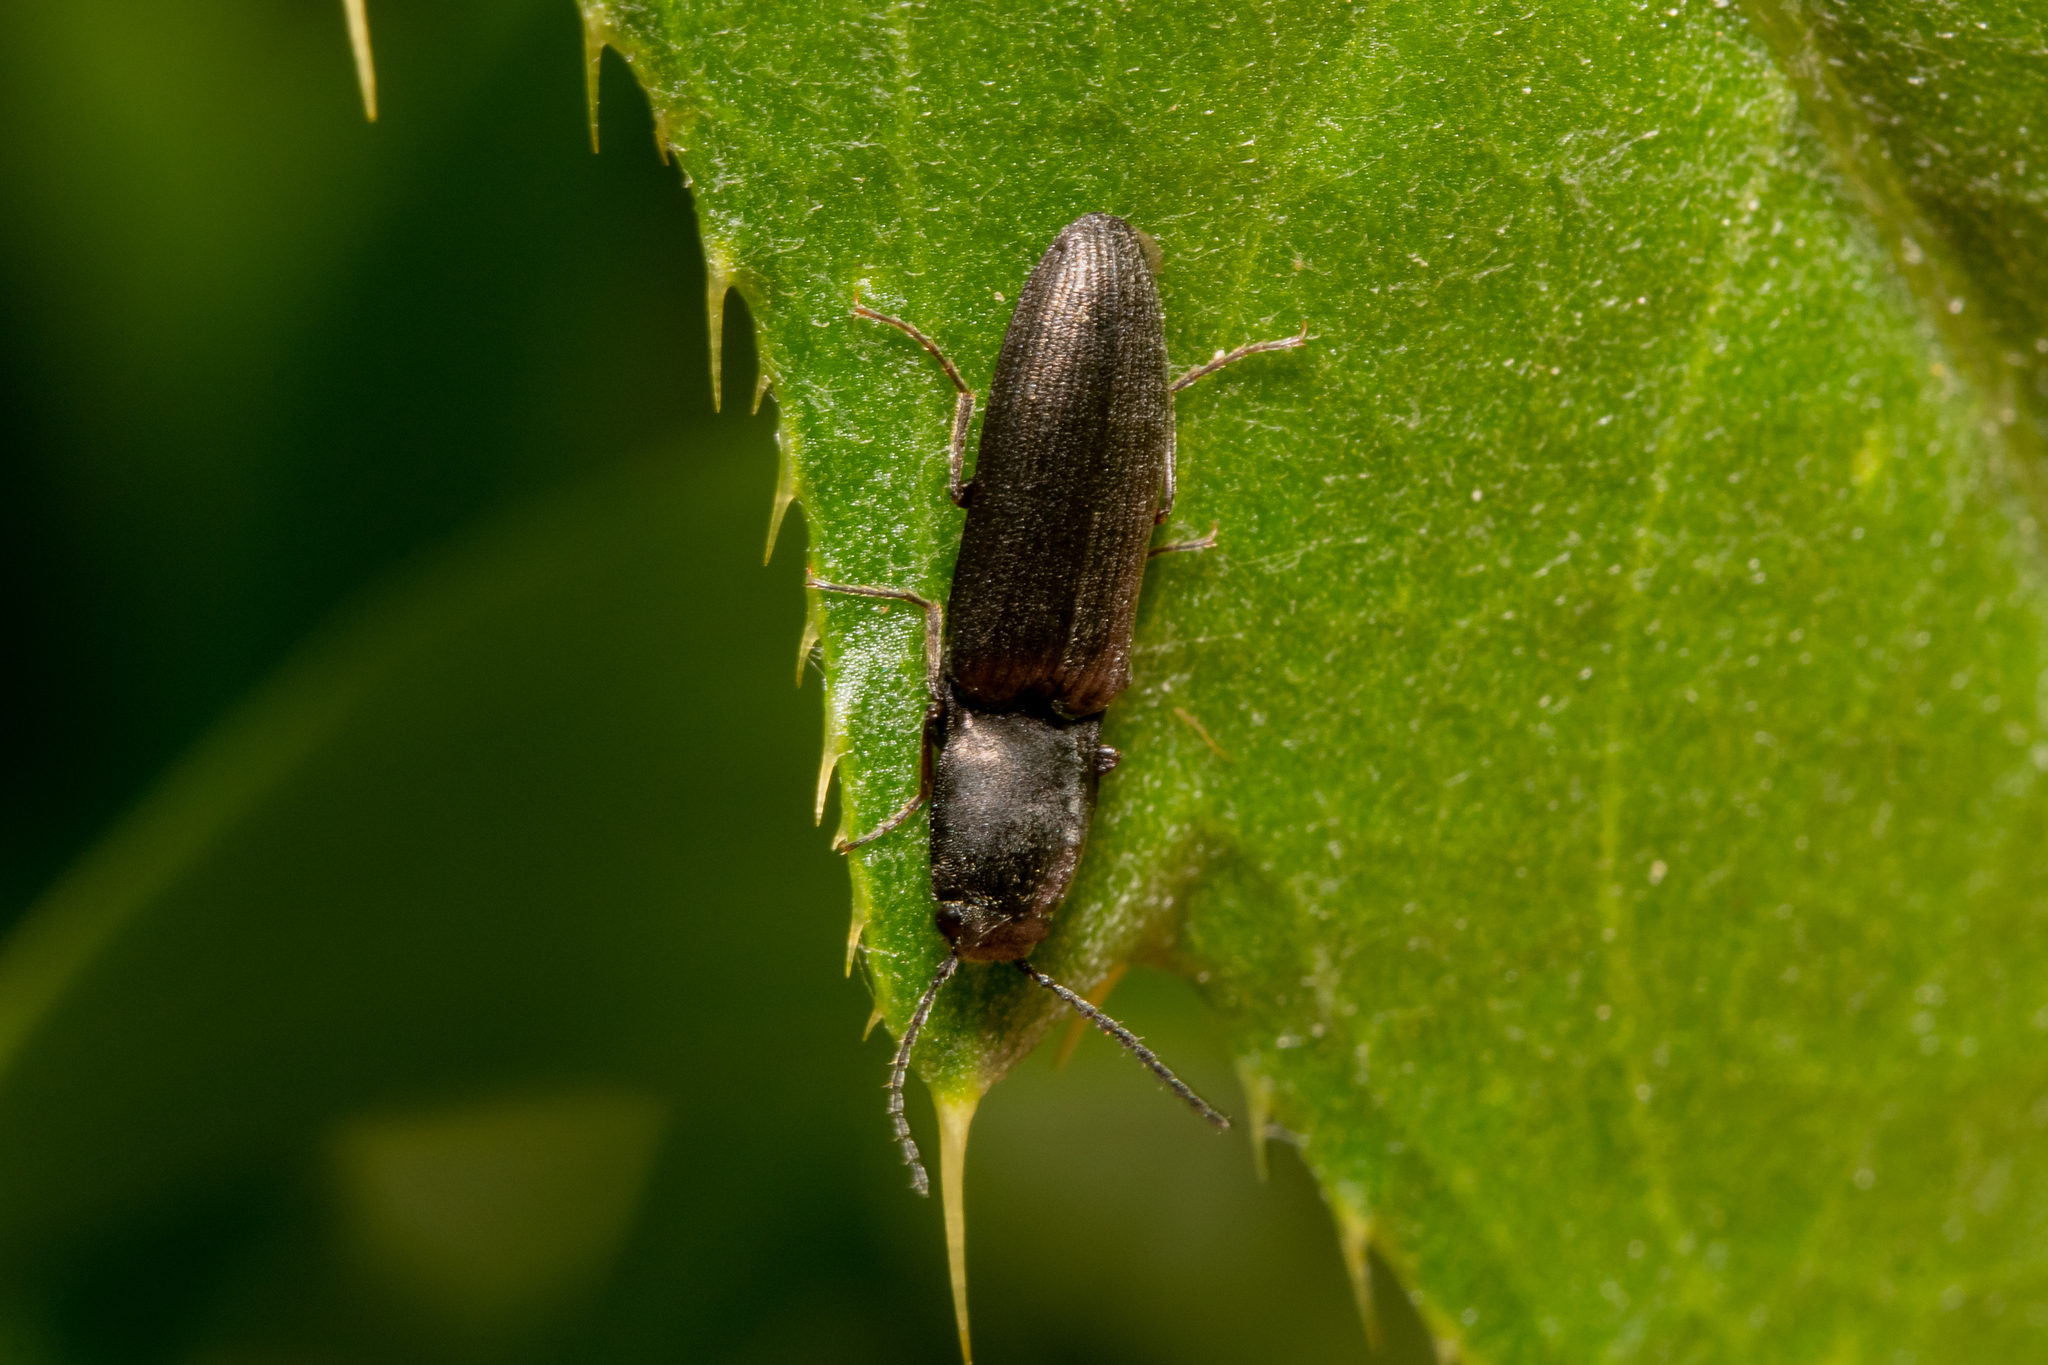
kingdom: Animalia
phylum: Arthropoda
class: Insecta
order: Coleoptera
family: Elateridae
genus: Aplotarsus
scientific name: Aplotarsus incanus
